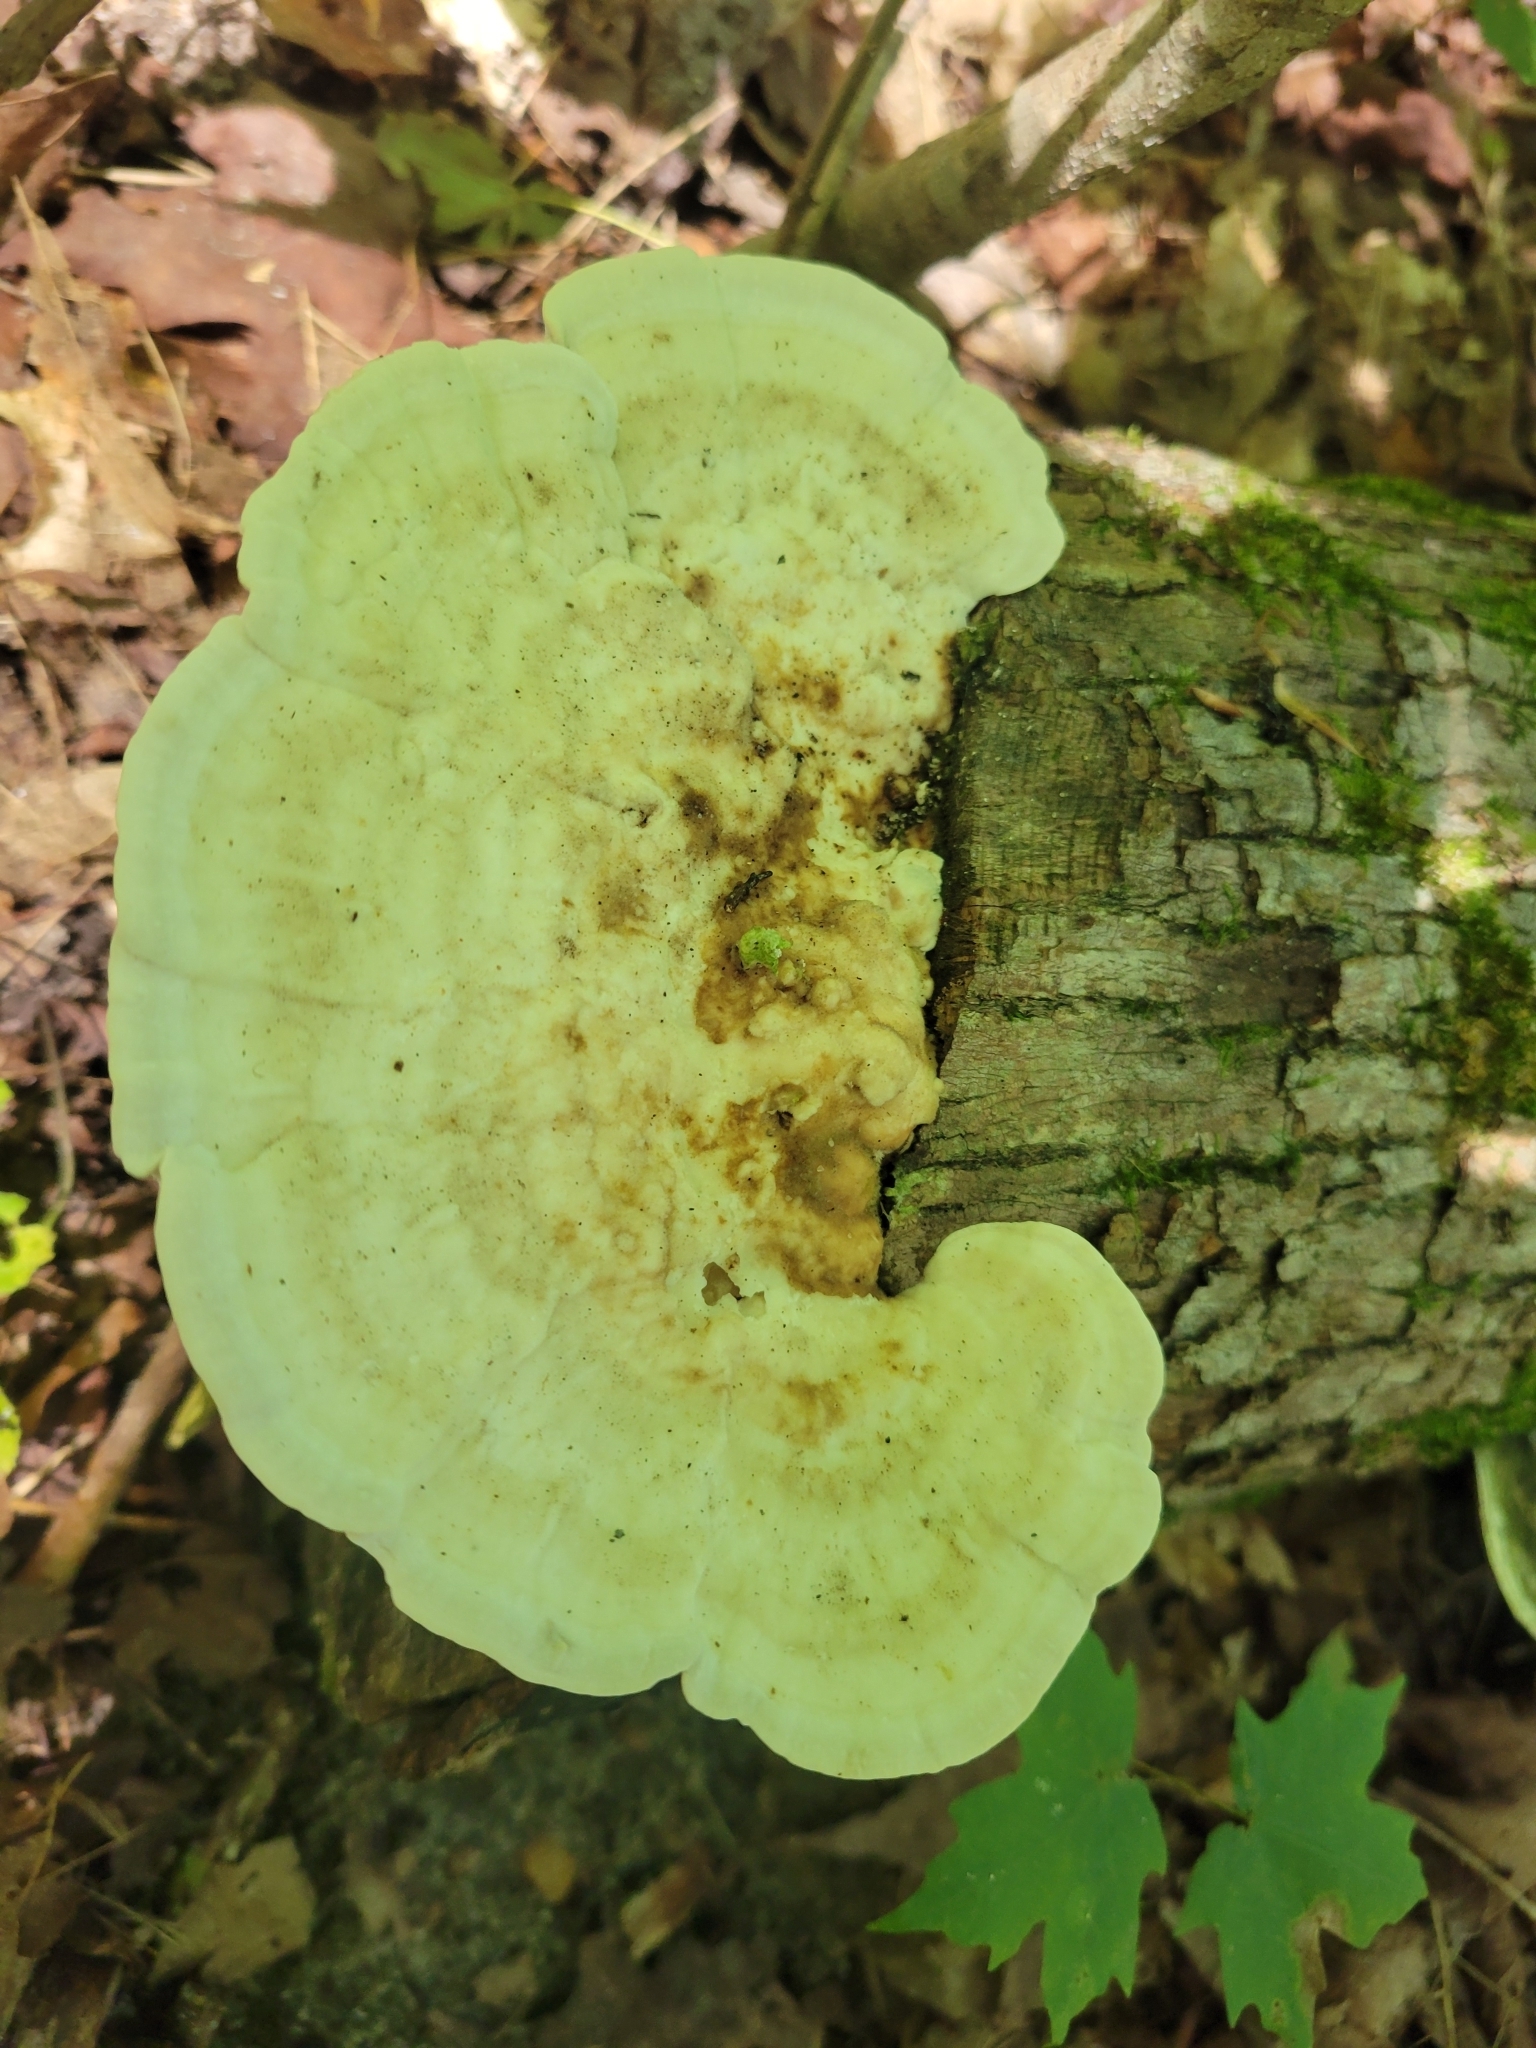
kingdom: Fungi
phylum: Basidiomycota
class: Agaricomycetes
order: Polyporales
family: Polyporaceae
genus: Trametes
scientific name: Trametes gibbosa
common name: Lumpy bracket
